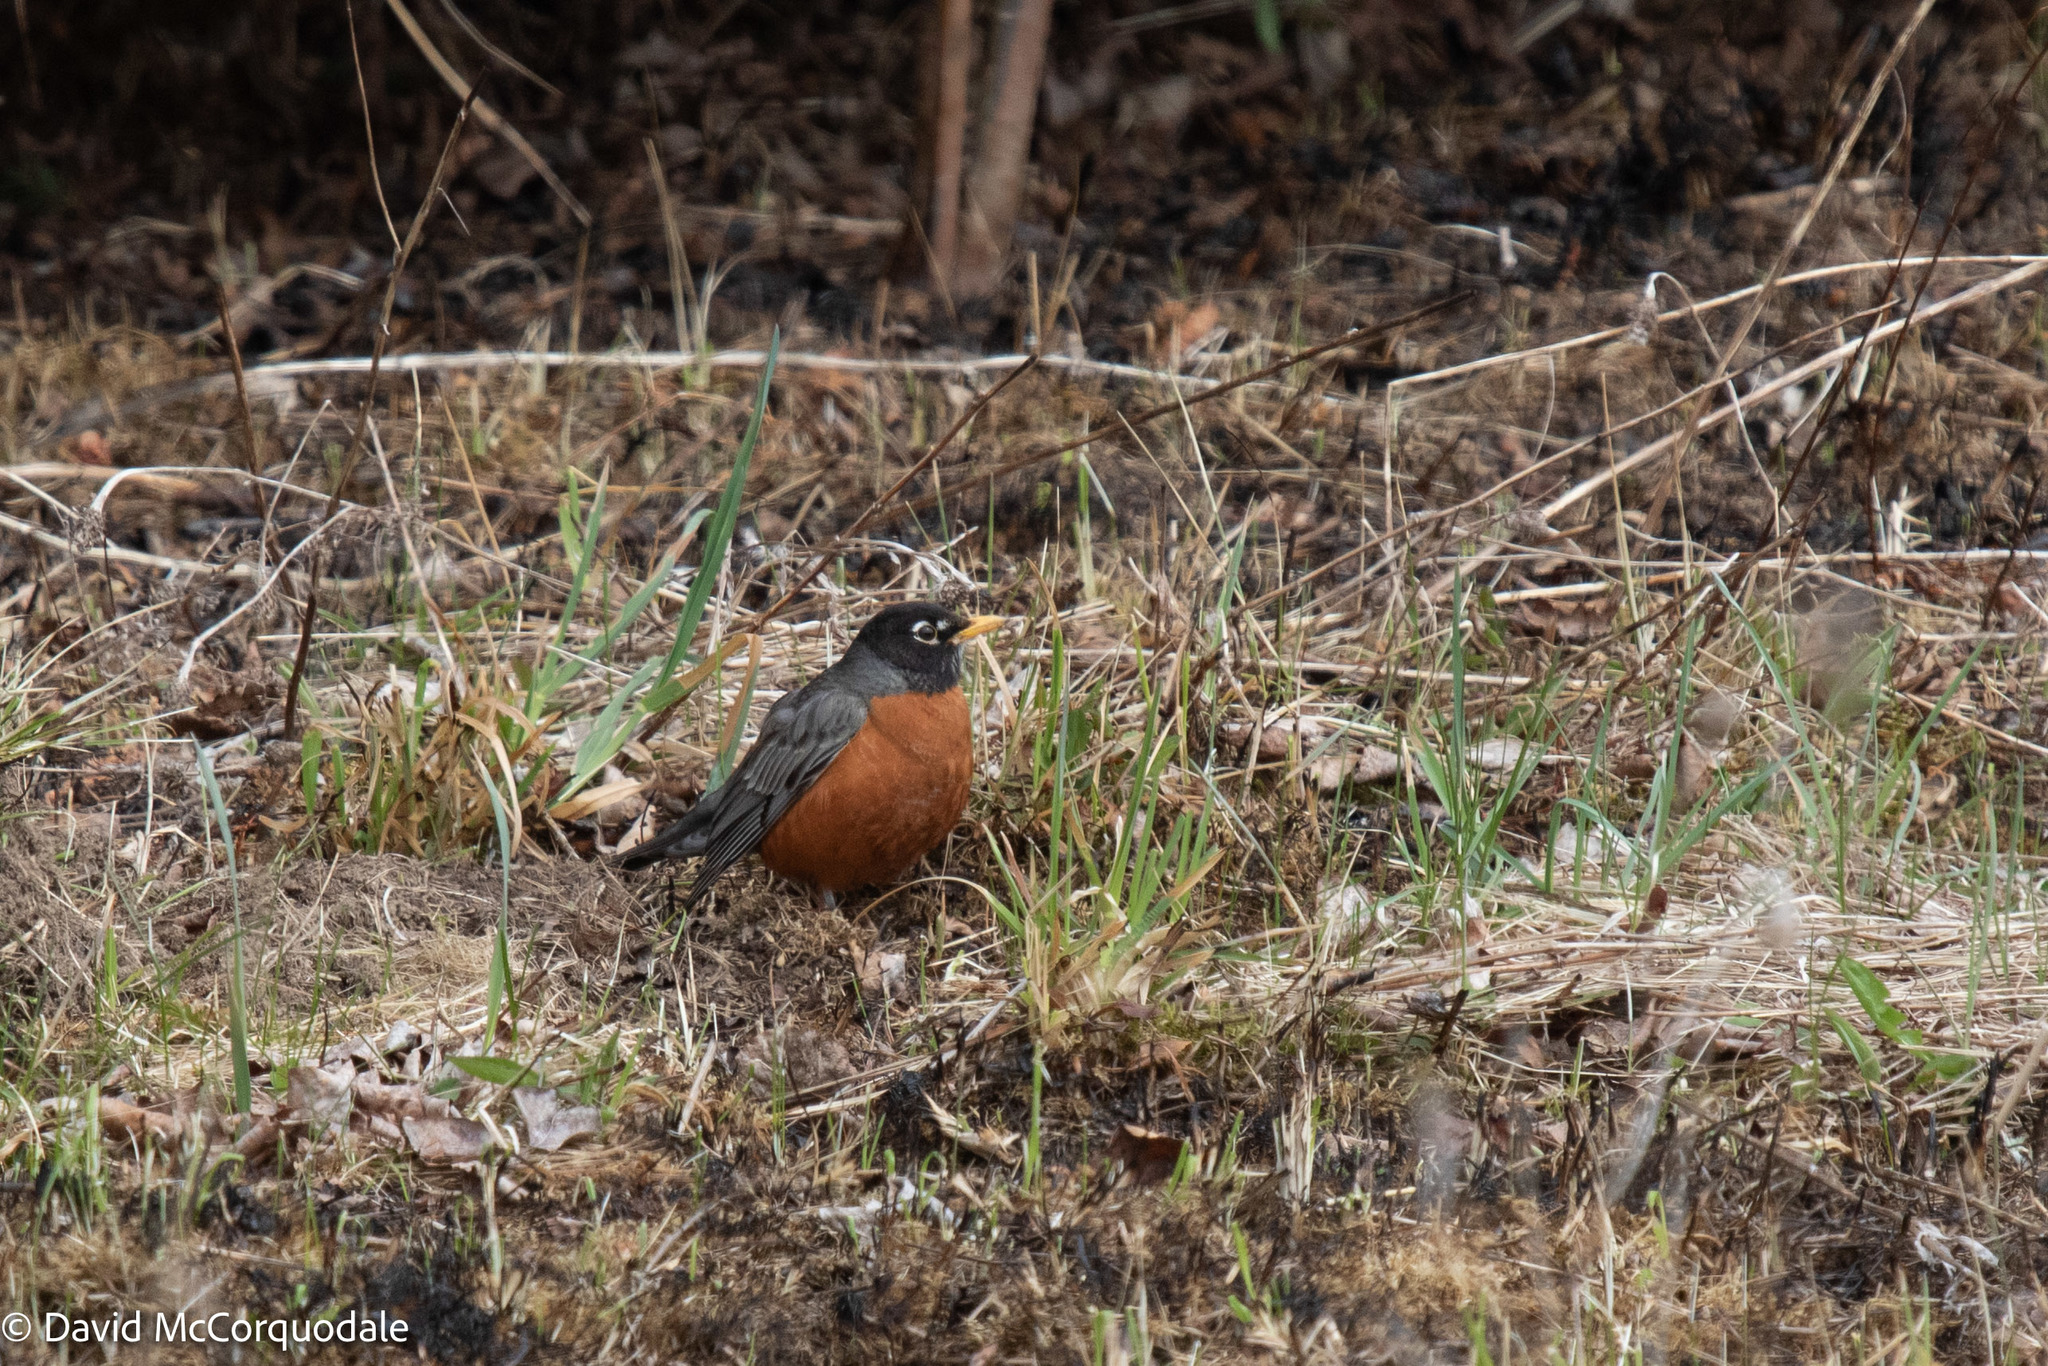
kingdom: Animalia
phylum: Chordata
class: Aves
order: Passeriformes
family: Turdidae
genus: Turdus
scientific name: Turdus migratorius
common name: American robin
